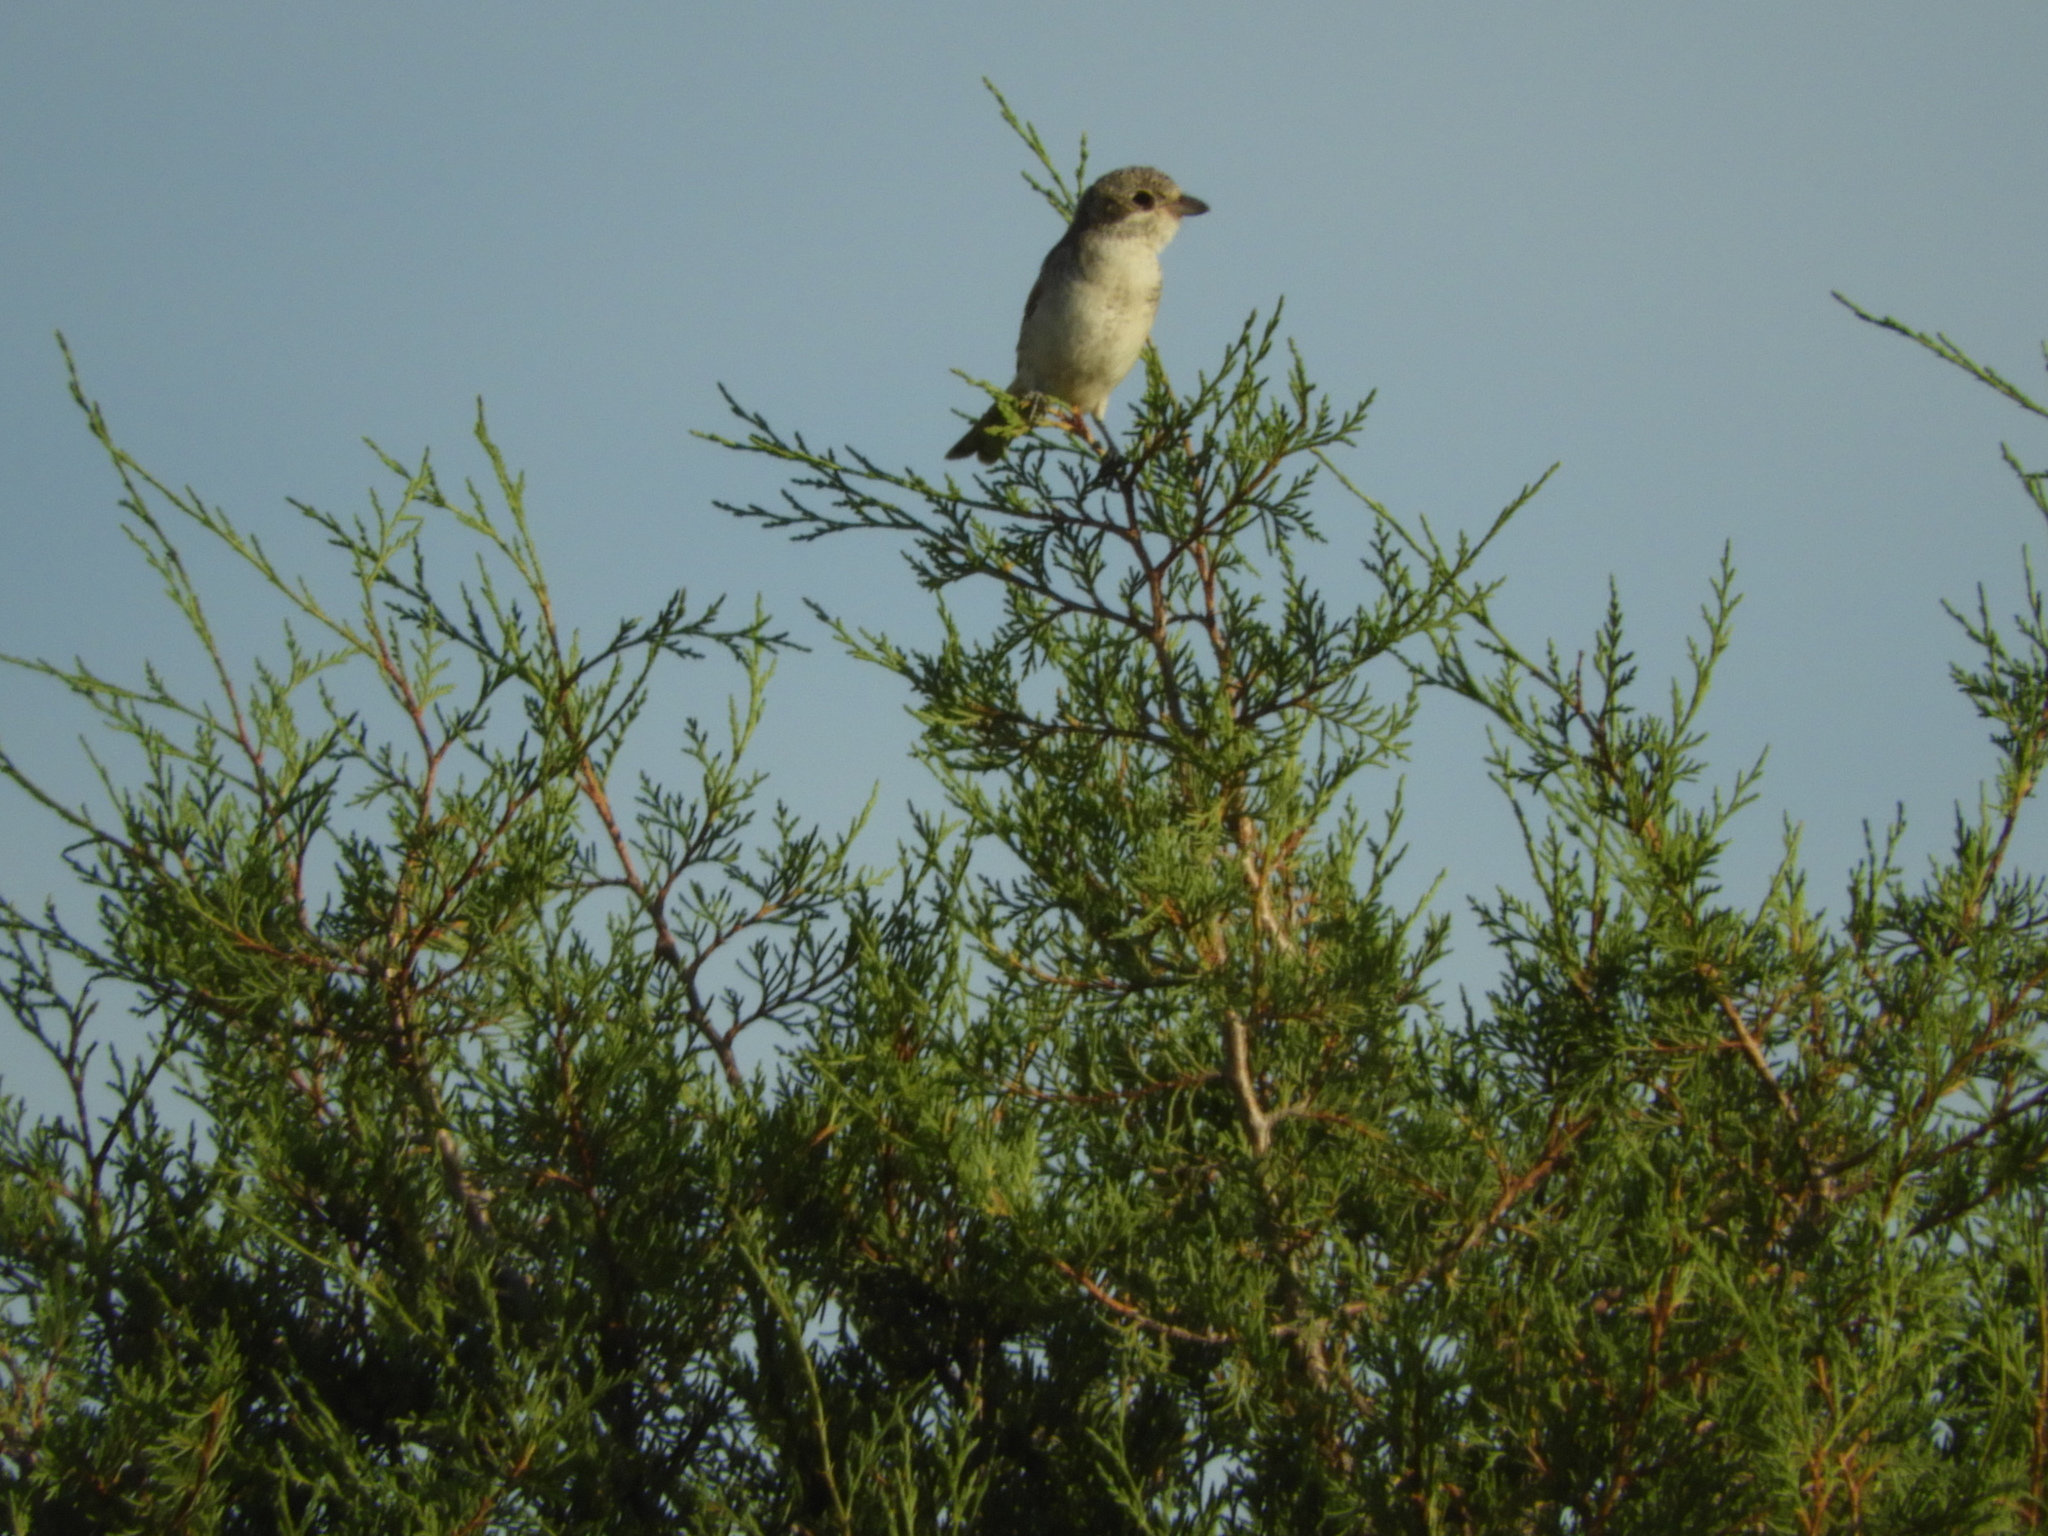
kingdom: Animalia
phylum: Chordata
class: Aves
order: Passeriformes
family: Laniidae
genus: Lanius
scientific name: Lanius senator
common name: Woodchat shrike
